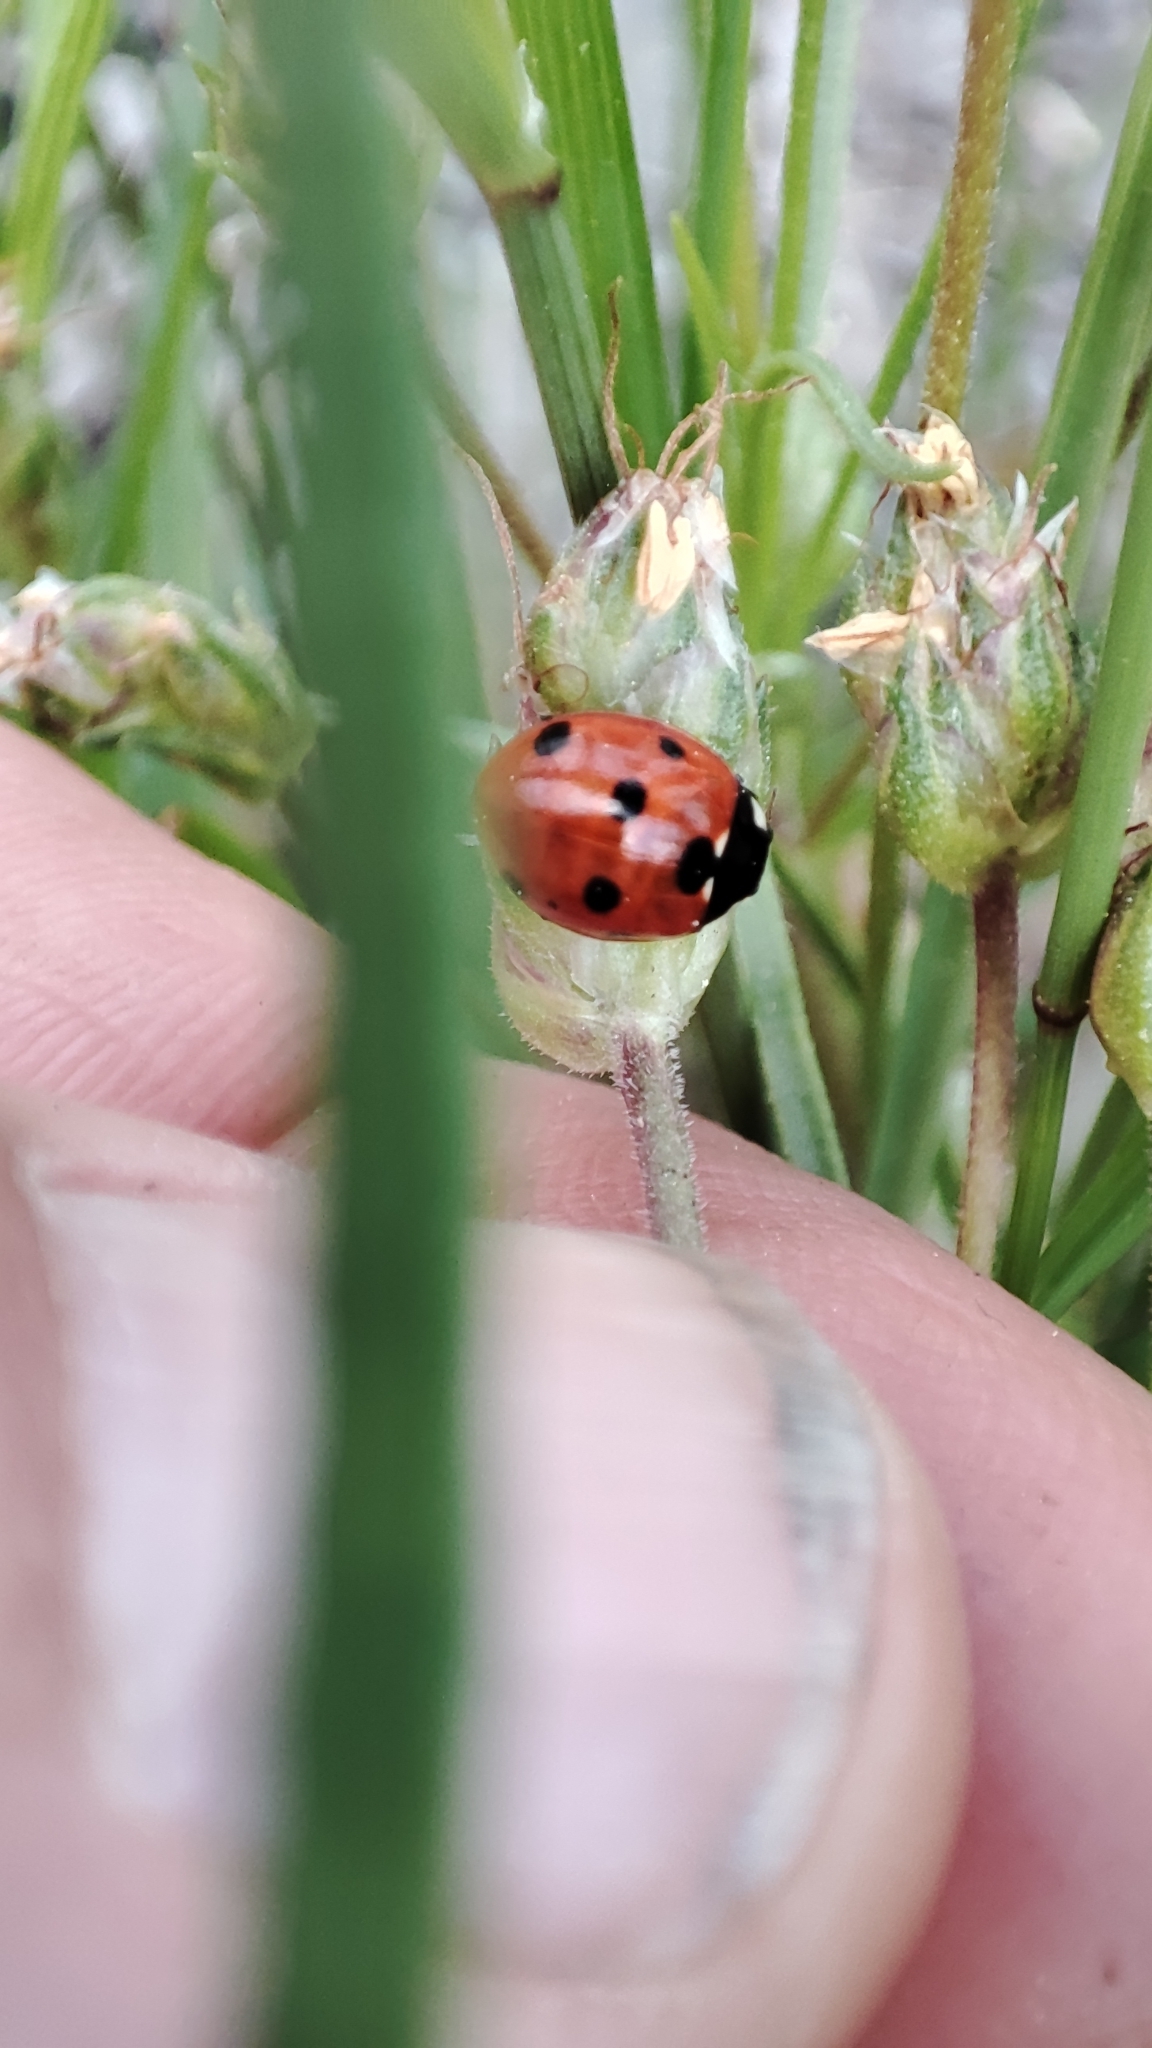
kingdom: Animalia
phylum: Arthropoda
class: Insecta
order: Coleoptera
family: Coccinellidae
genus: Coccinella
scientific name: Coccinella septempunctata
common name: Sevenspotted lady beetle
